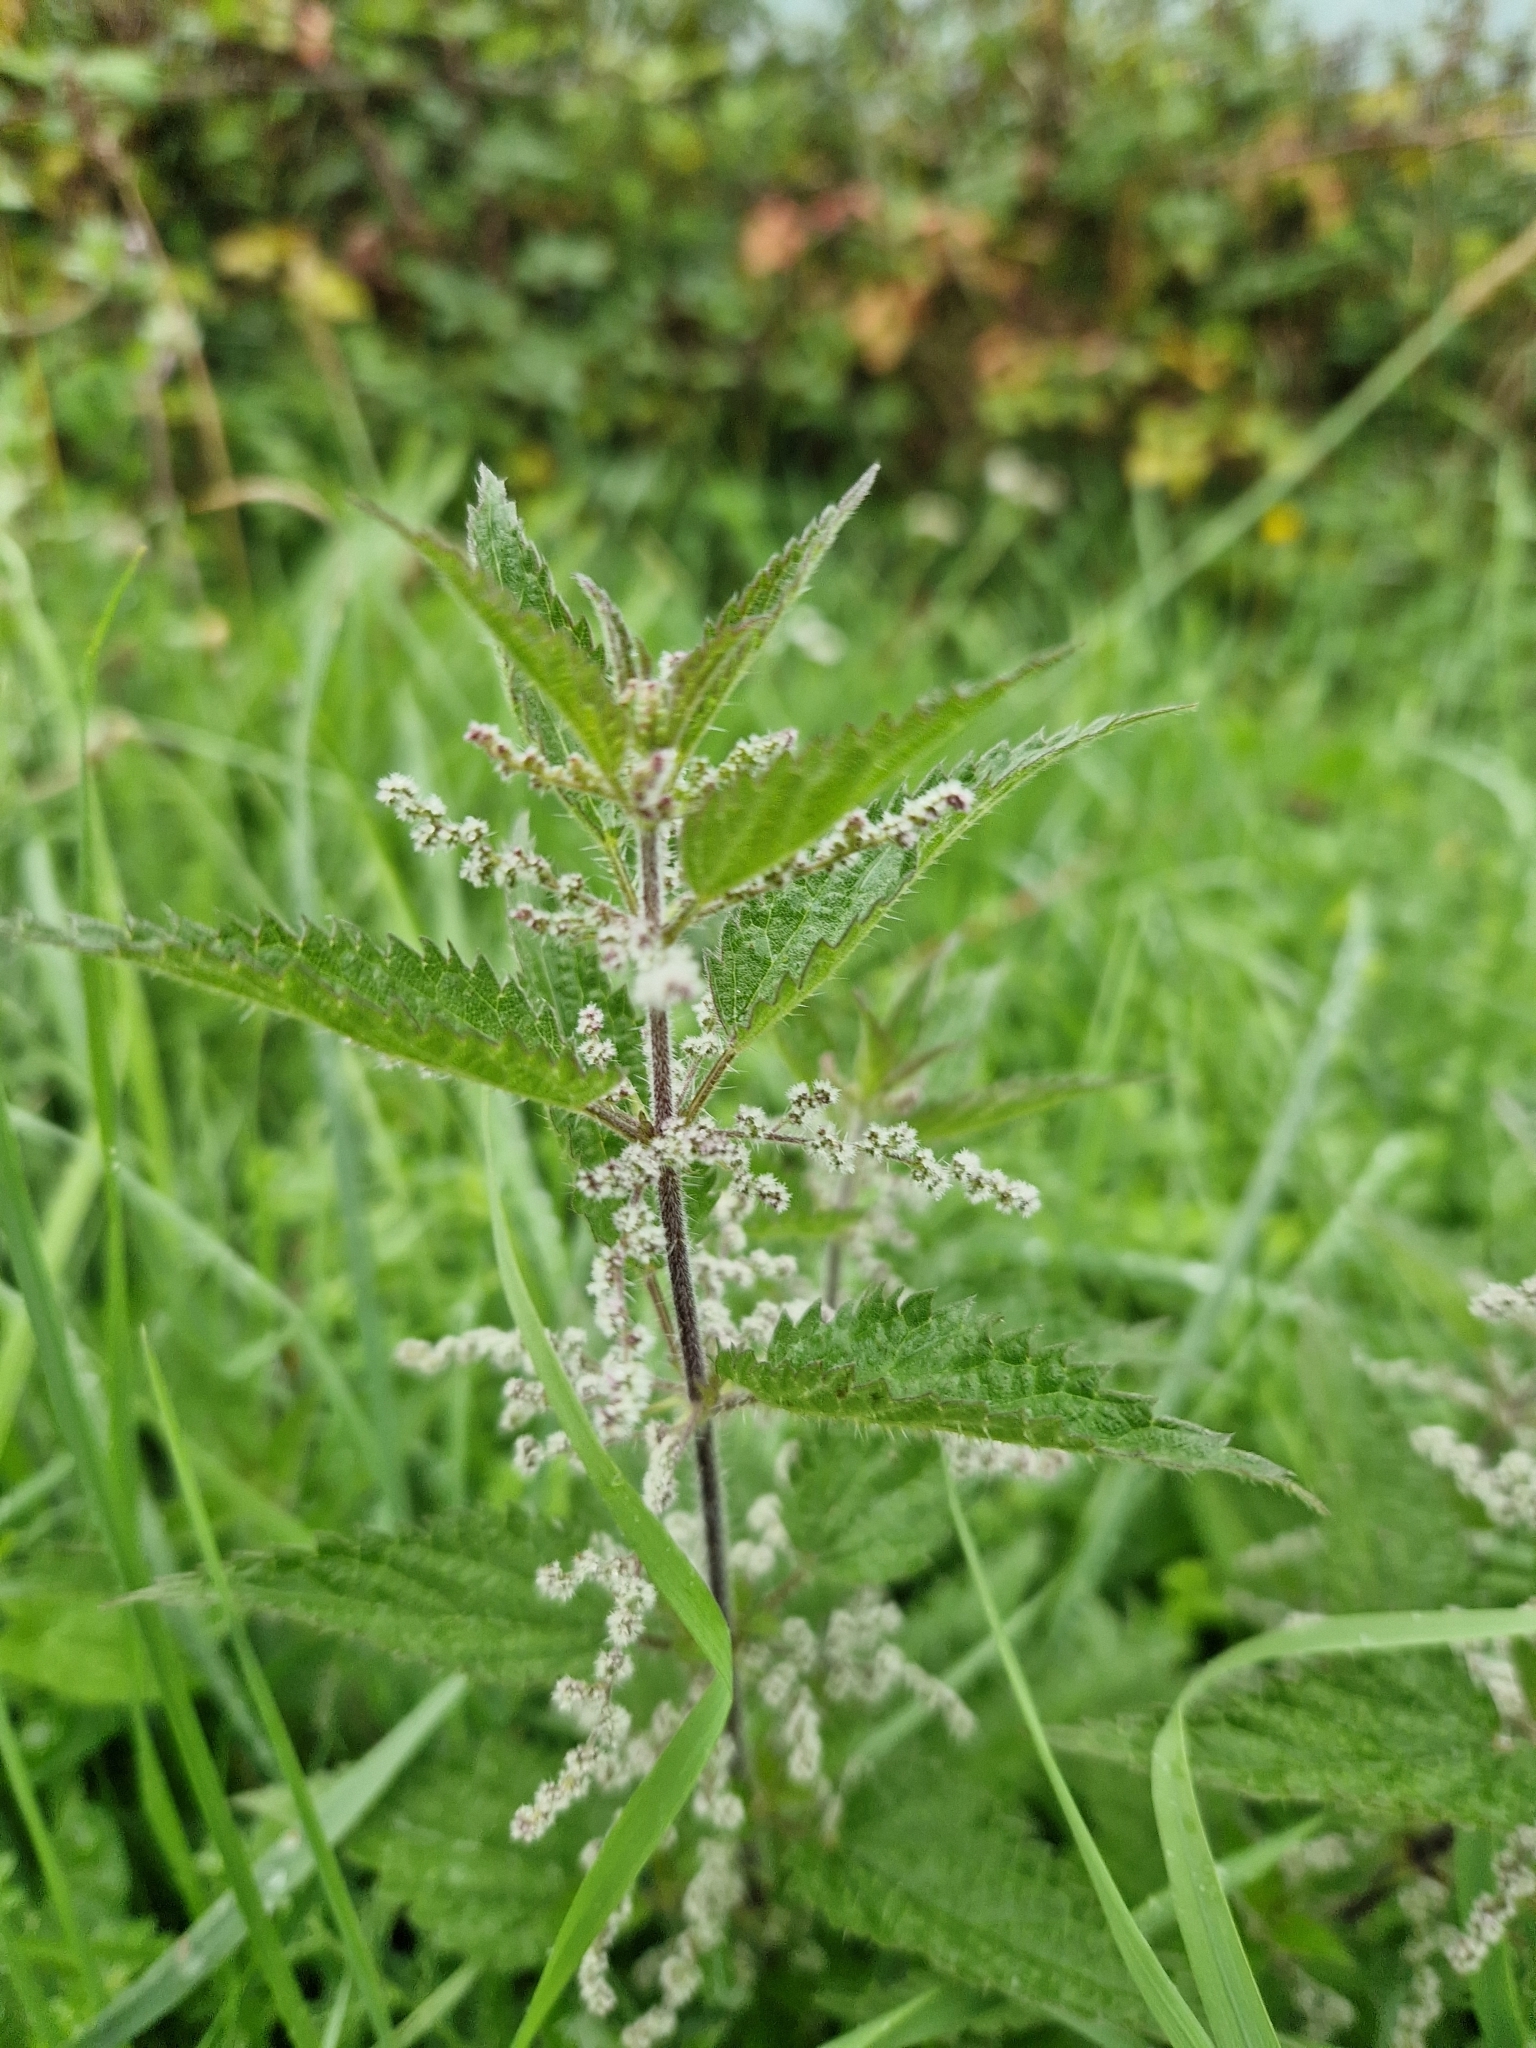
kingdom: Plantae
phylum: Tracheophyta
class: Magnoliopsida
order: Rosales
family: Urticaceae
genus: Urtica
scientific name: Urtica dioica
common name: Common nettle
